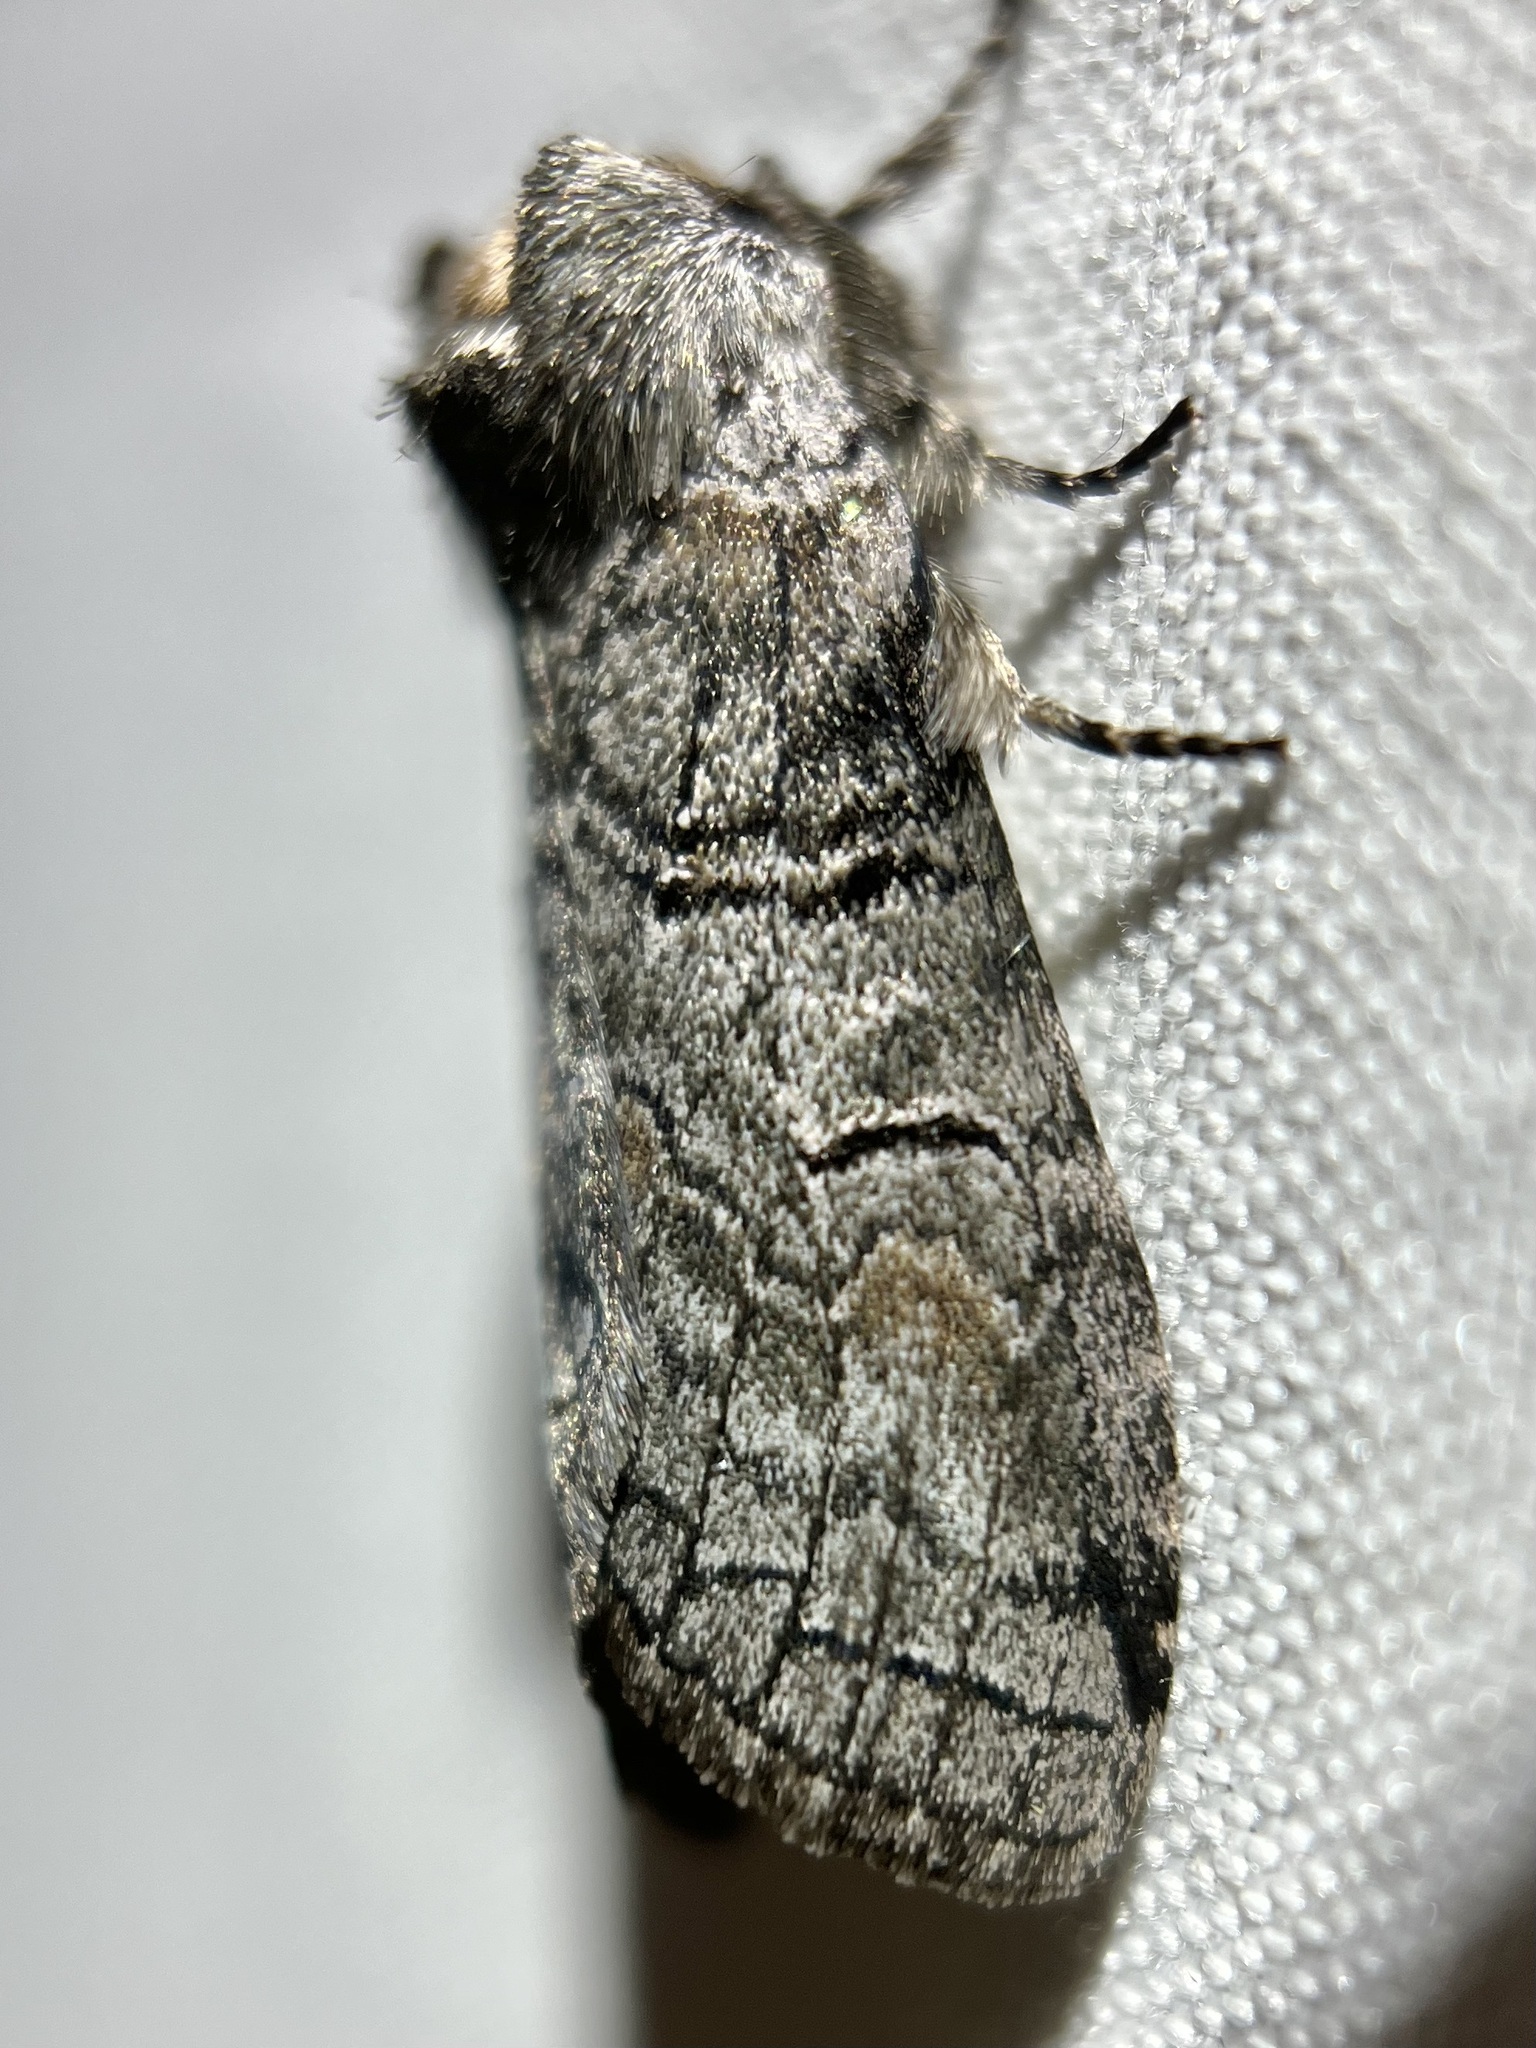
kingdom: Animalia
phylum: Arthropoda
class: Insecta
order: Lepidoptera
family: Notodontidae
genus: Afilia
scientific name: Afilia oslari
